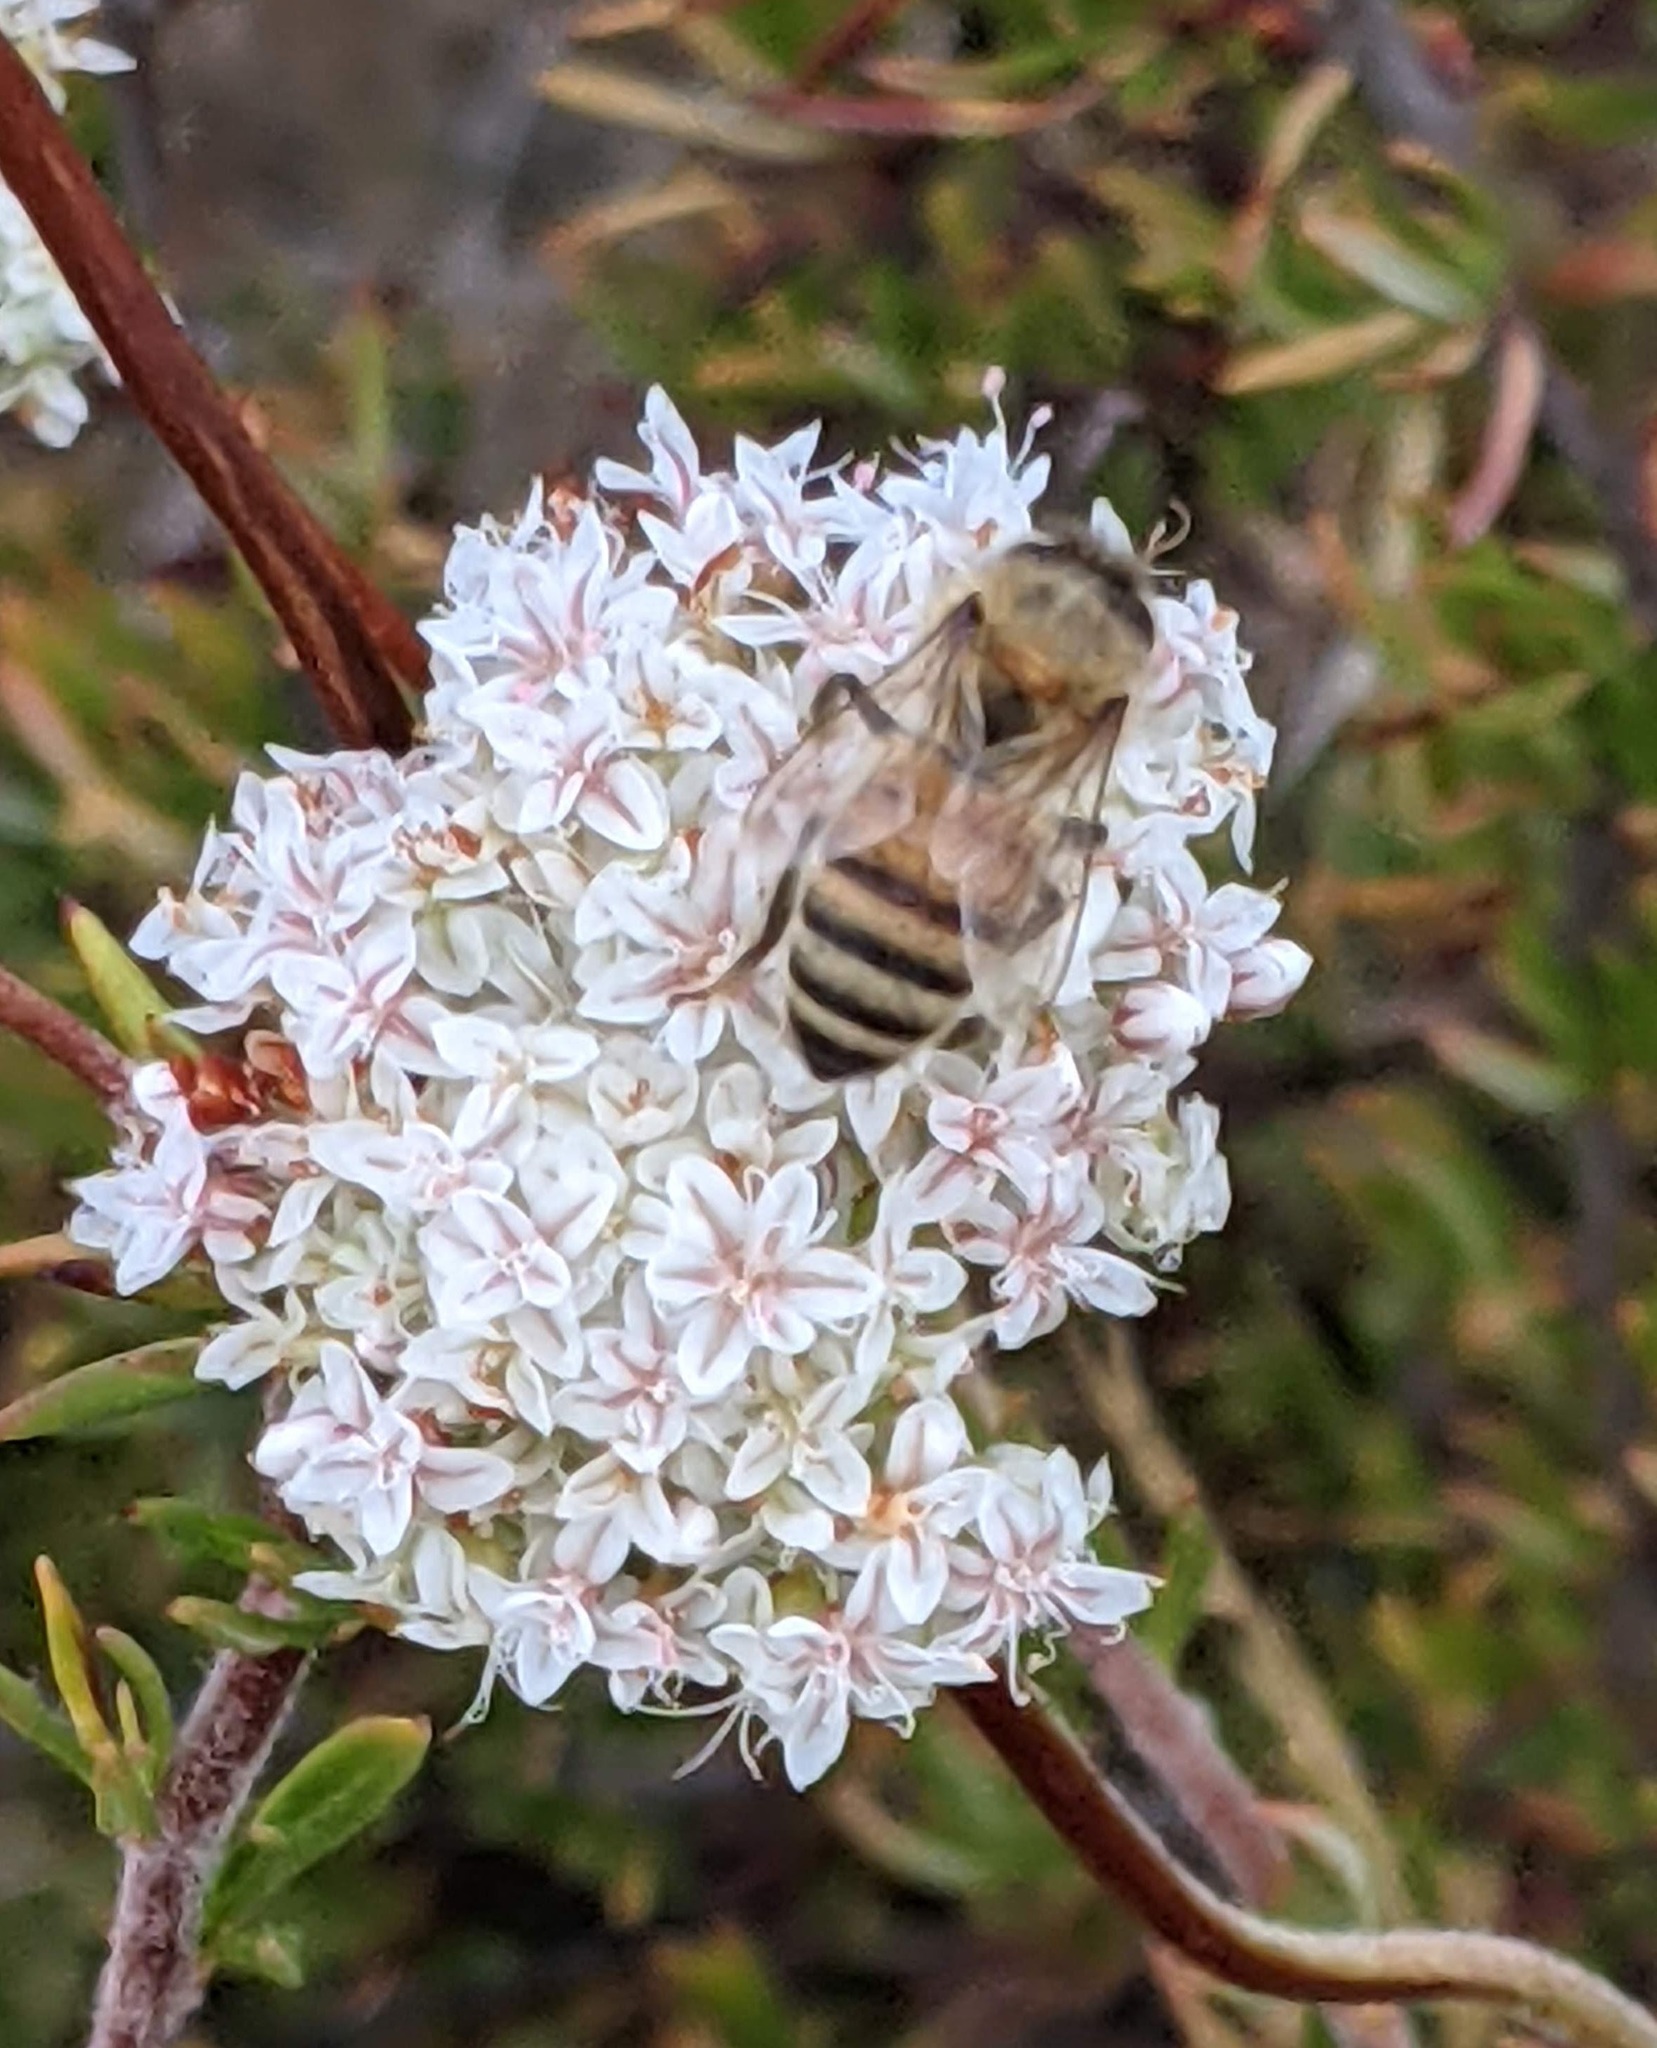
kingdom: Animalia
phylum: Arthropoda
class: Insecta
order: Hymenoptera
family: Apidae
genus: Apis
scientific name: Apis mellifera
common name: Honey bee
